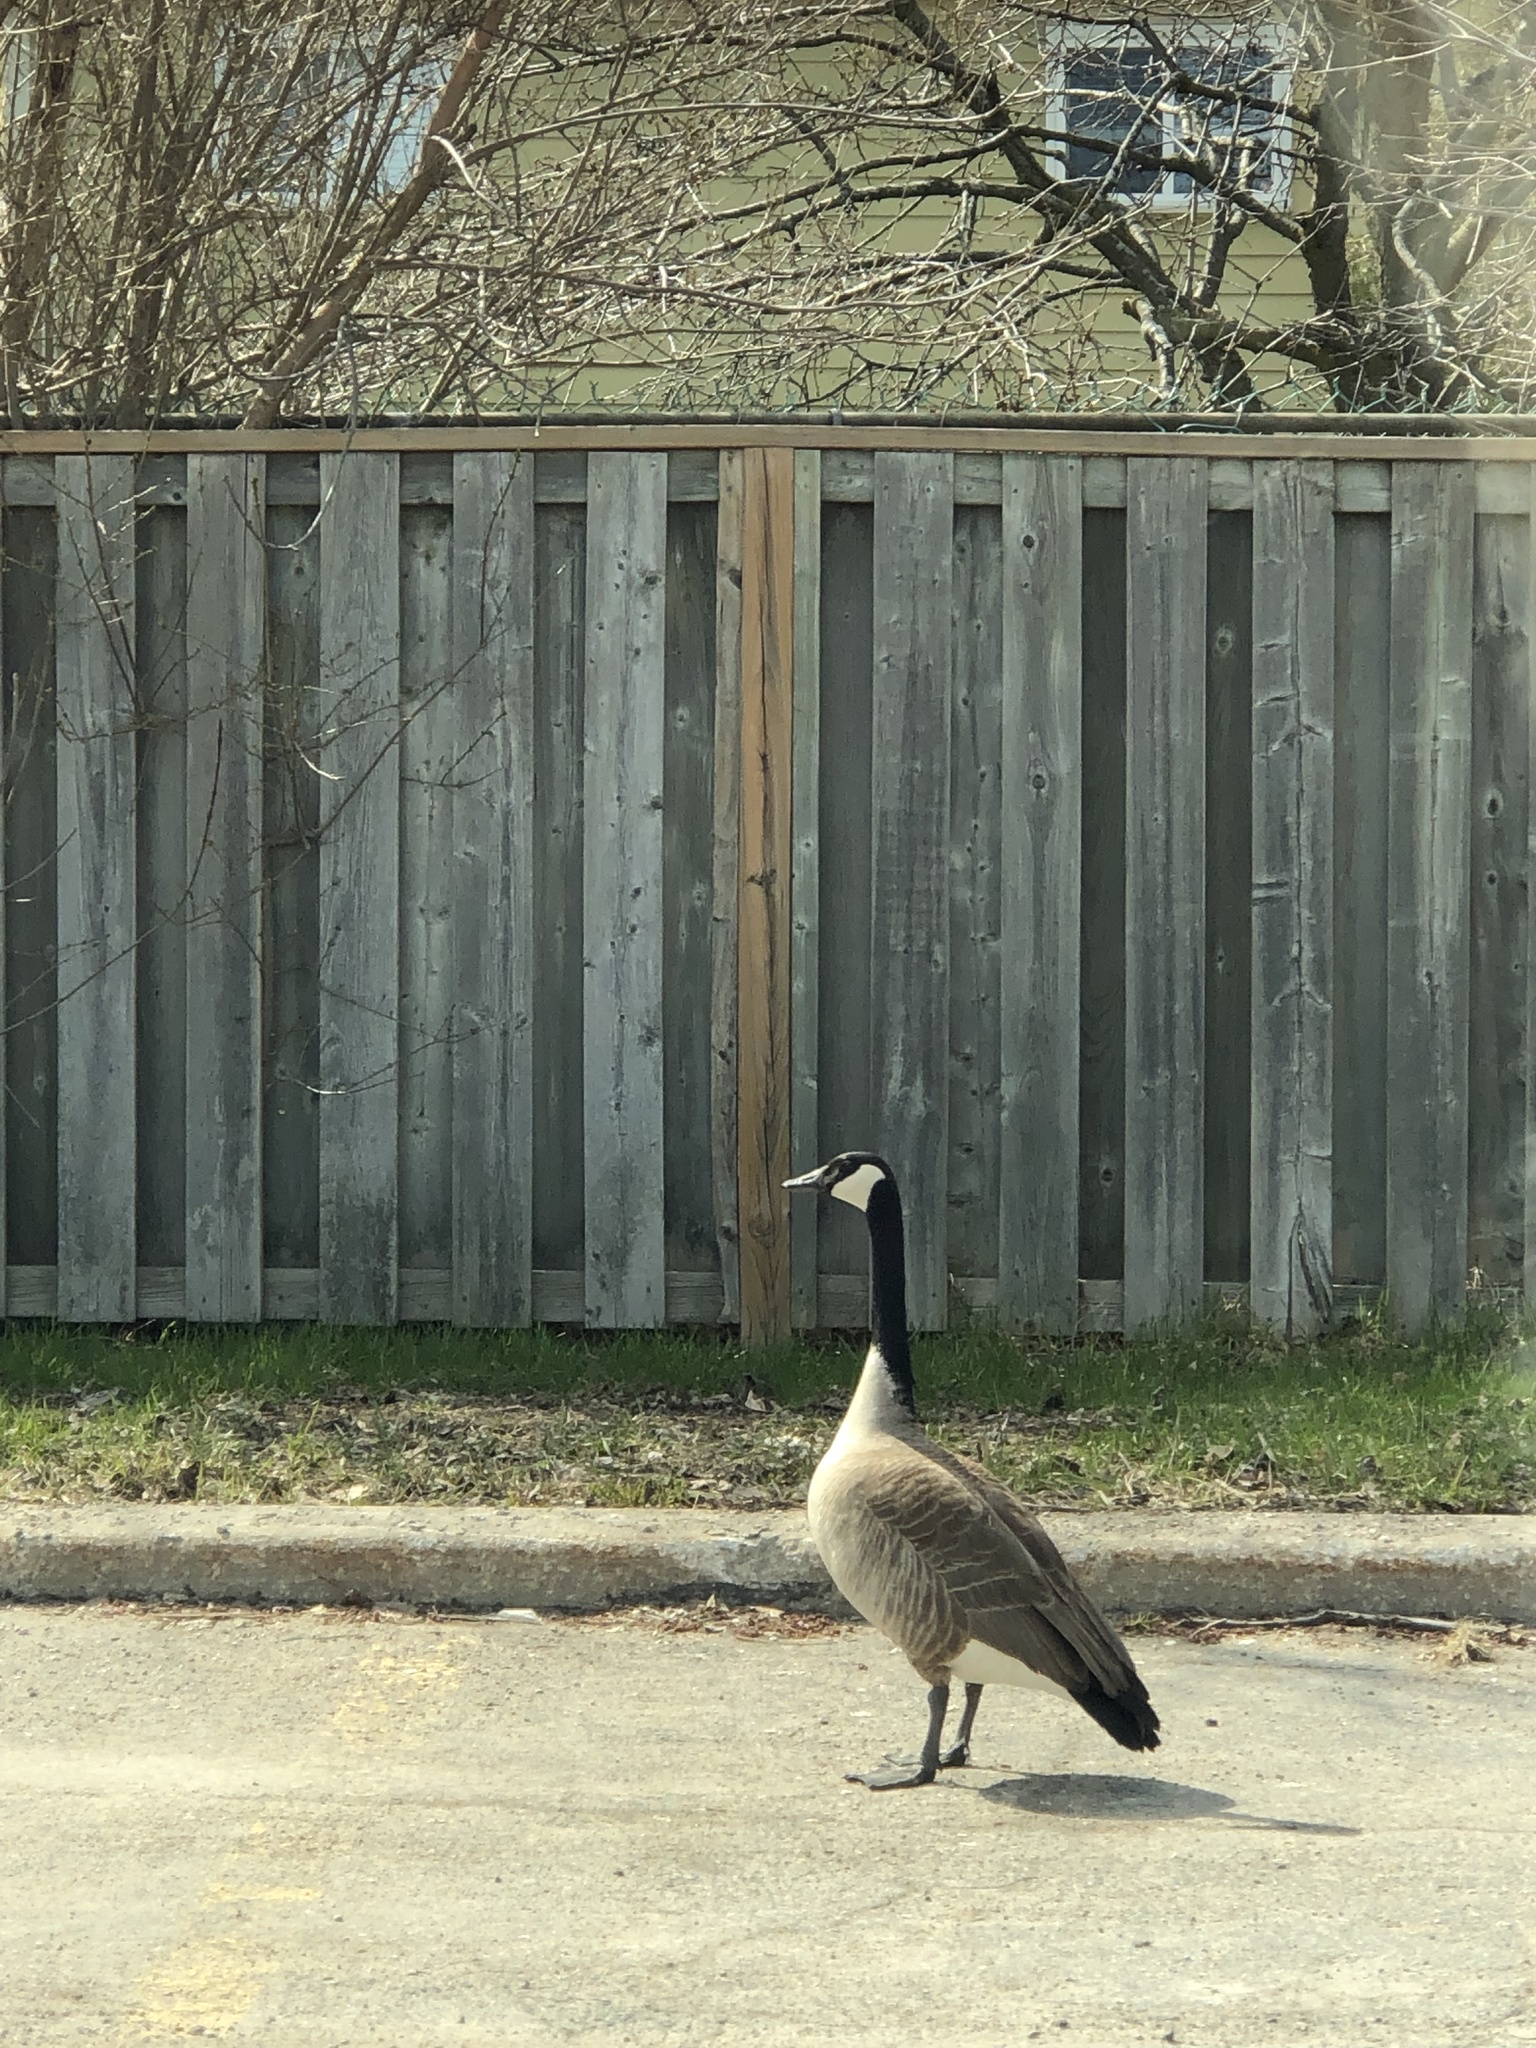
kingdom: Animalia
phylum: Chordata
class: Aves
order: Anseriformes
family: Anatidae
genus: Branta
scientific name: Branta canadensis
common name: Canada goose
